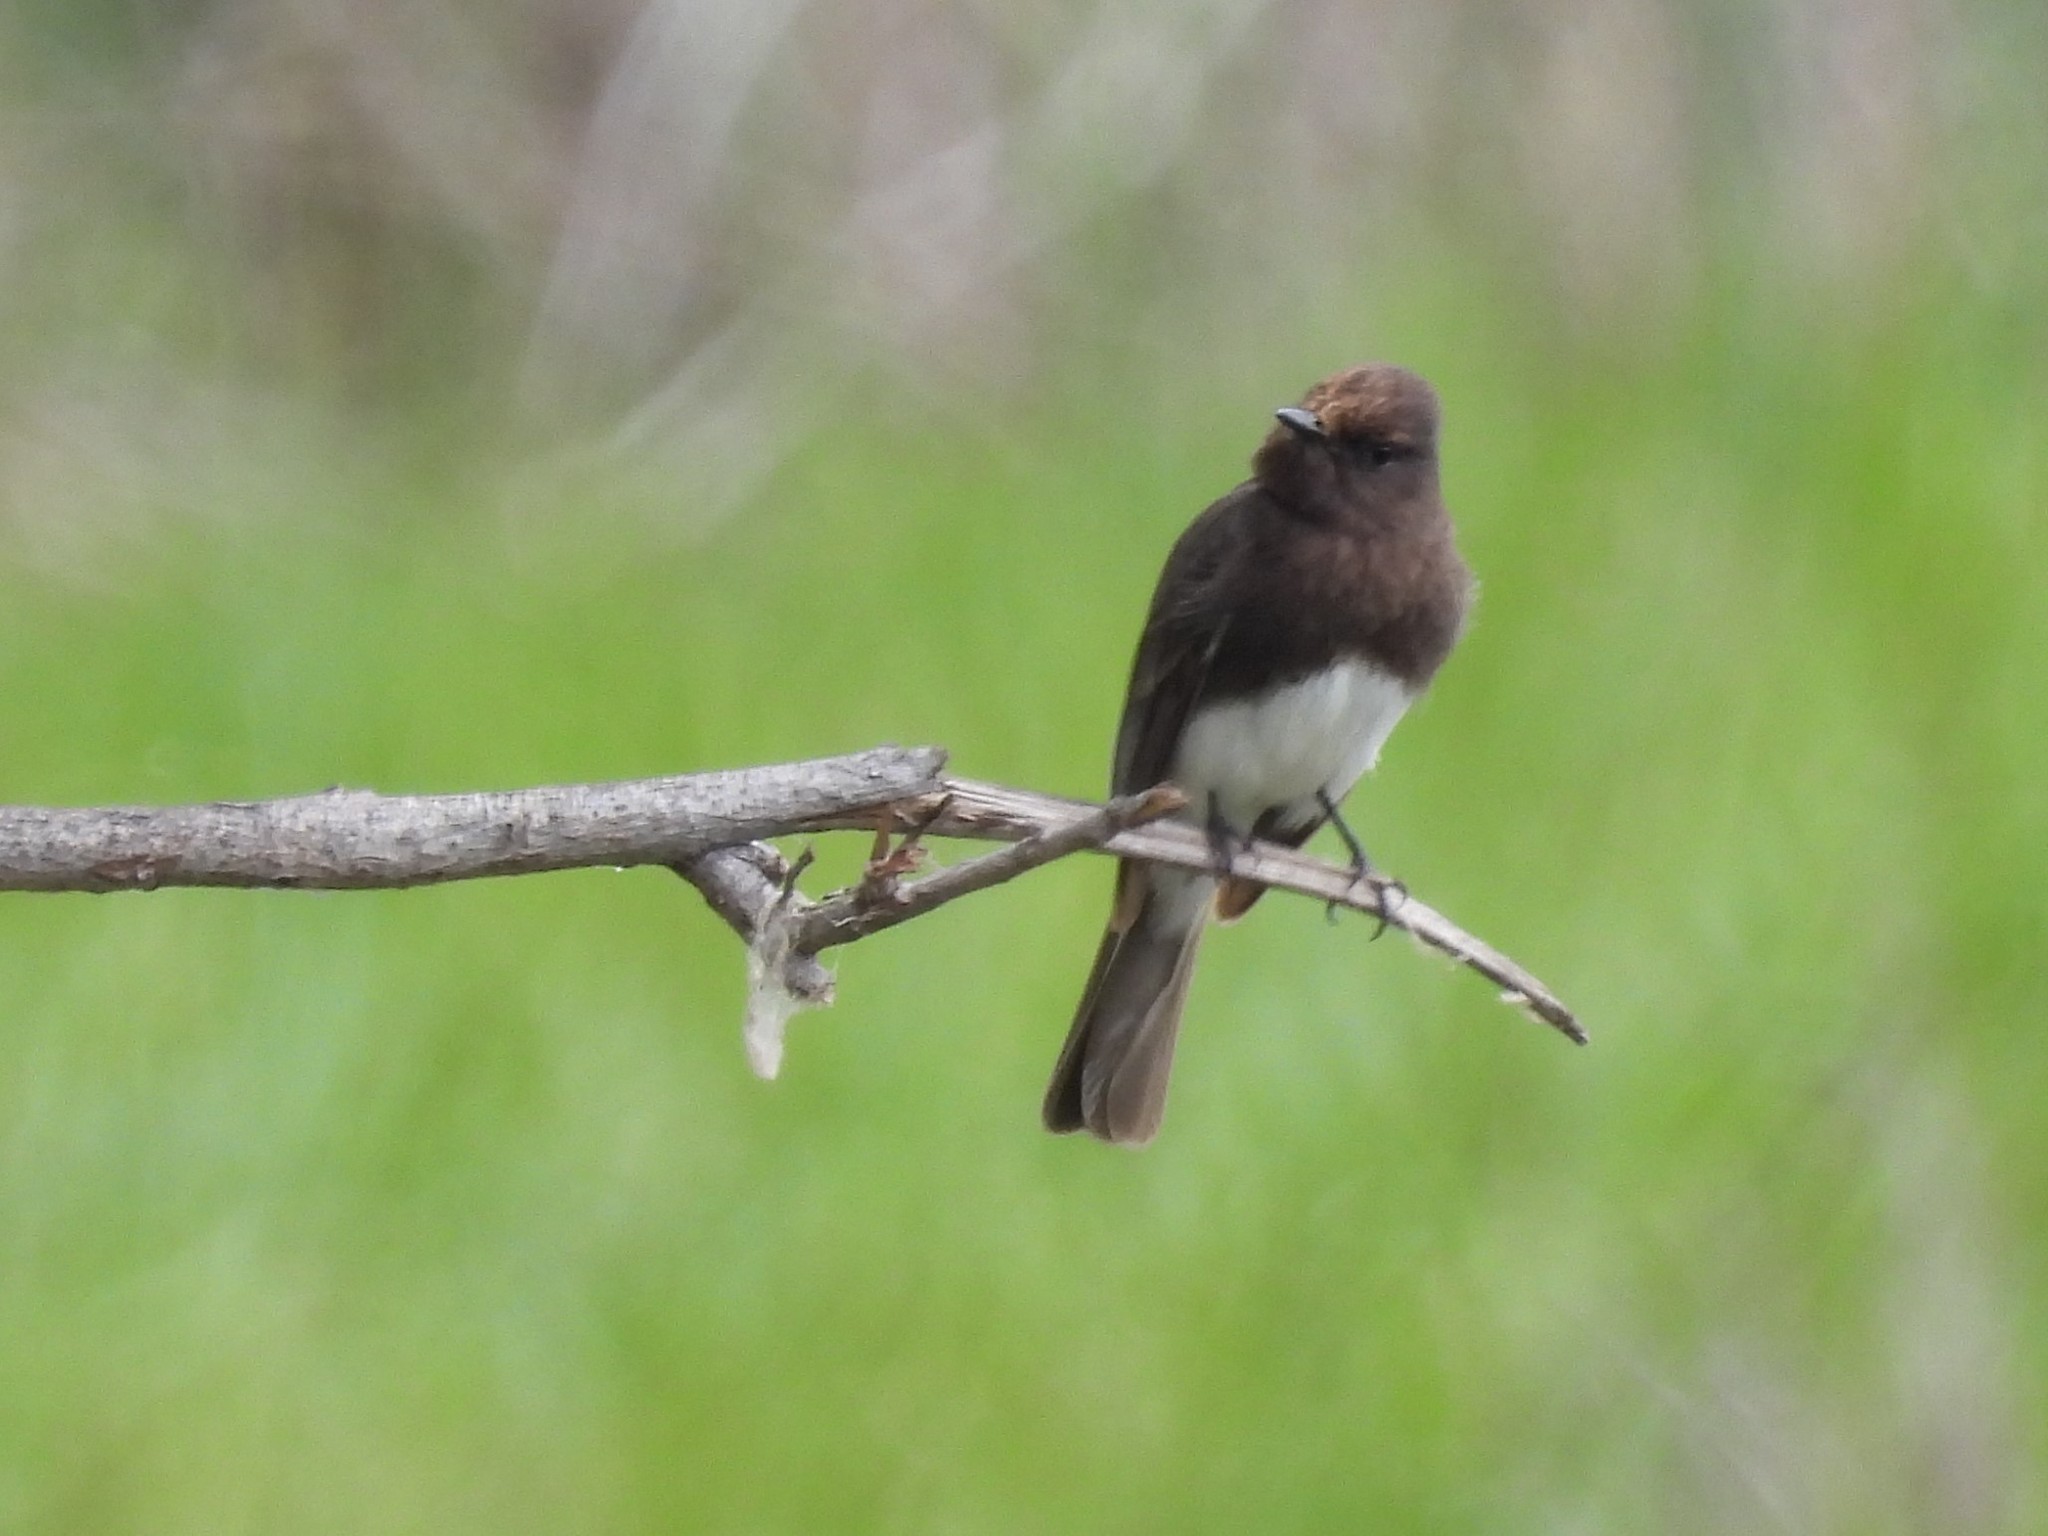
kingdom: Animalia
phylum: Chordata
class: Aves
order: Passeriformes
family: Tyrannidae
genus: Sayornis
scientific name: Sayornis nigricans
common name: Black phoebe
